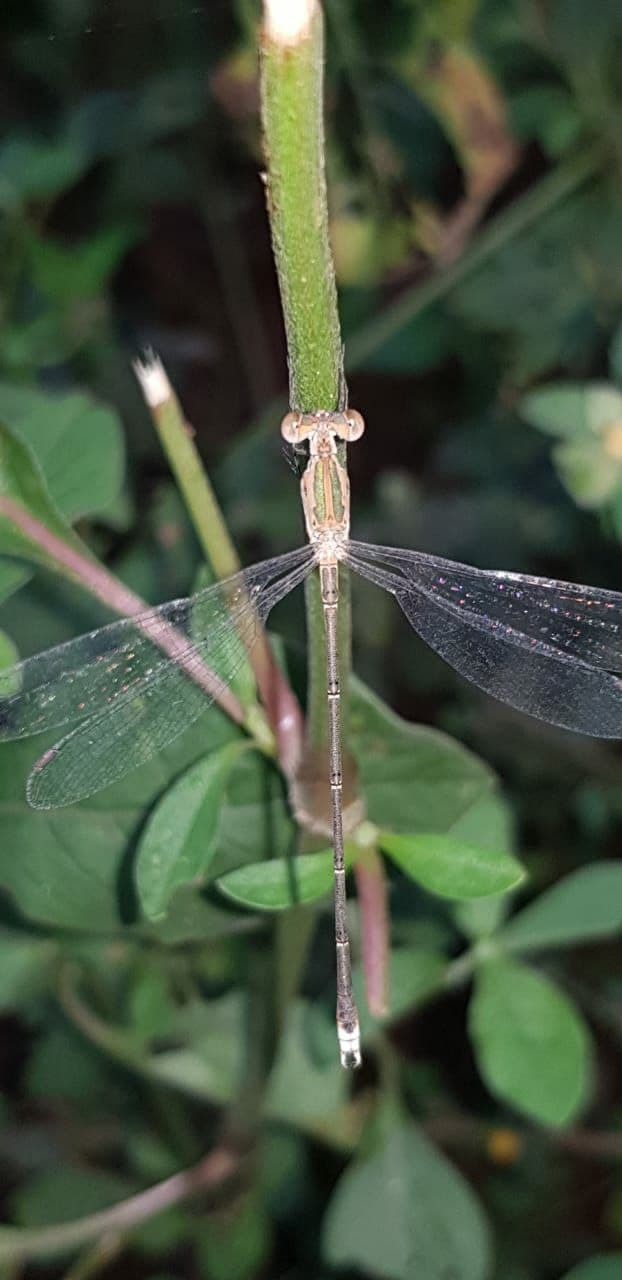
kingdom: Animalia
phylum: Arthropoda
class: Insecta
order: Odonata
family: Lestidae
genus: Lestes
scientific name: Lestes elatus
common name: Emerald spreadwing
